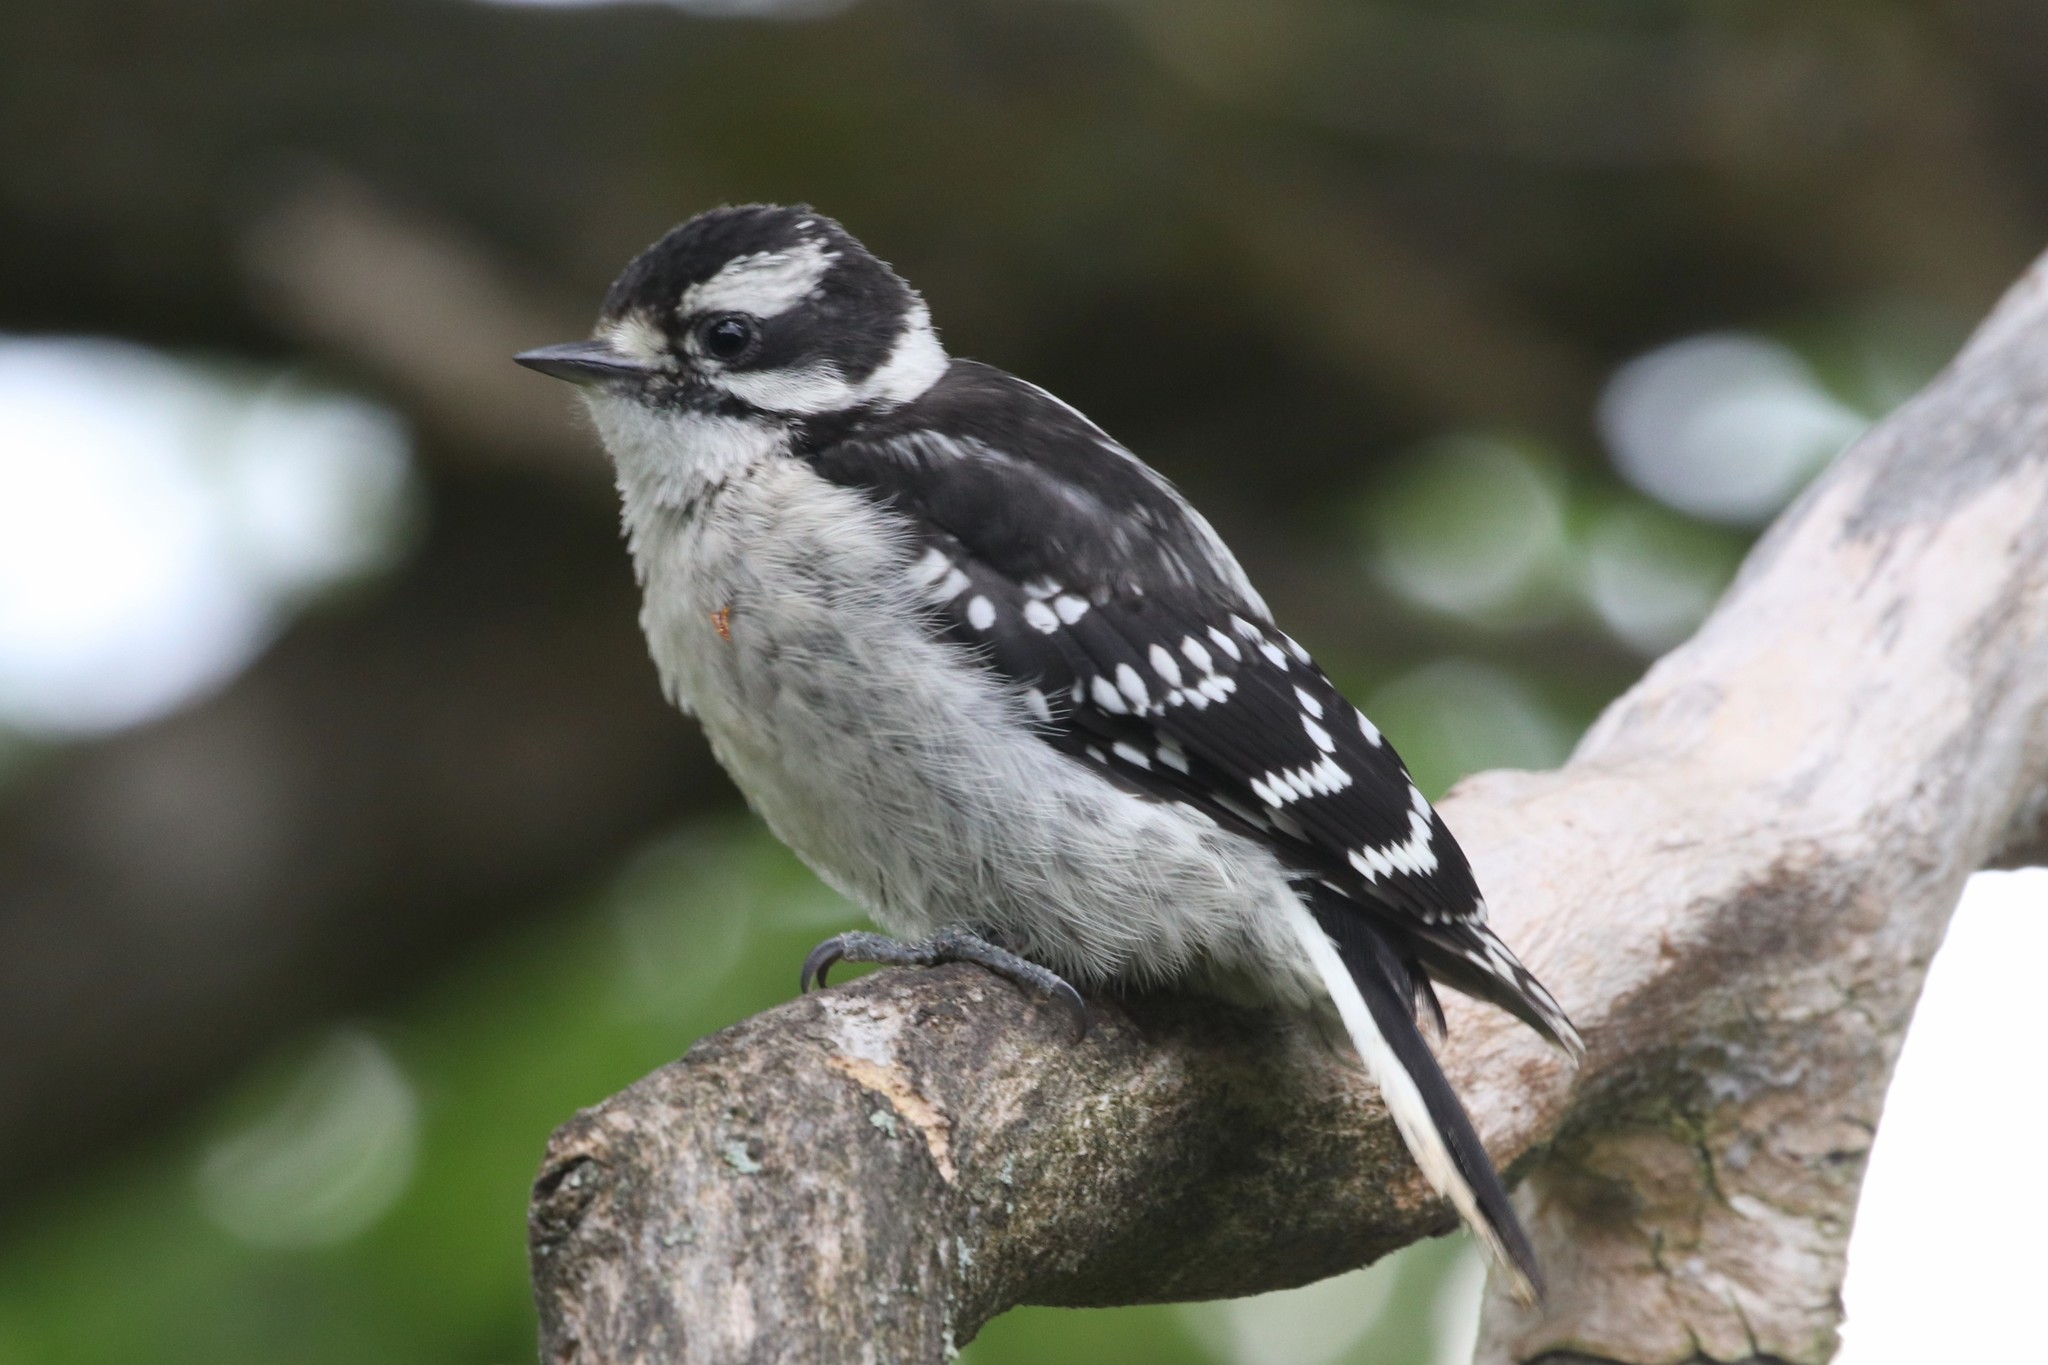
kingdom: Animalia
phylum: Chordata
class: Aves
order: Piciformes
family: Picidae
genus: Dryobates
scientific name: Dryobates pubescens
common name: Downy woodpecker
